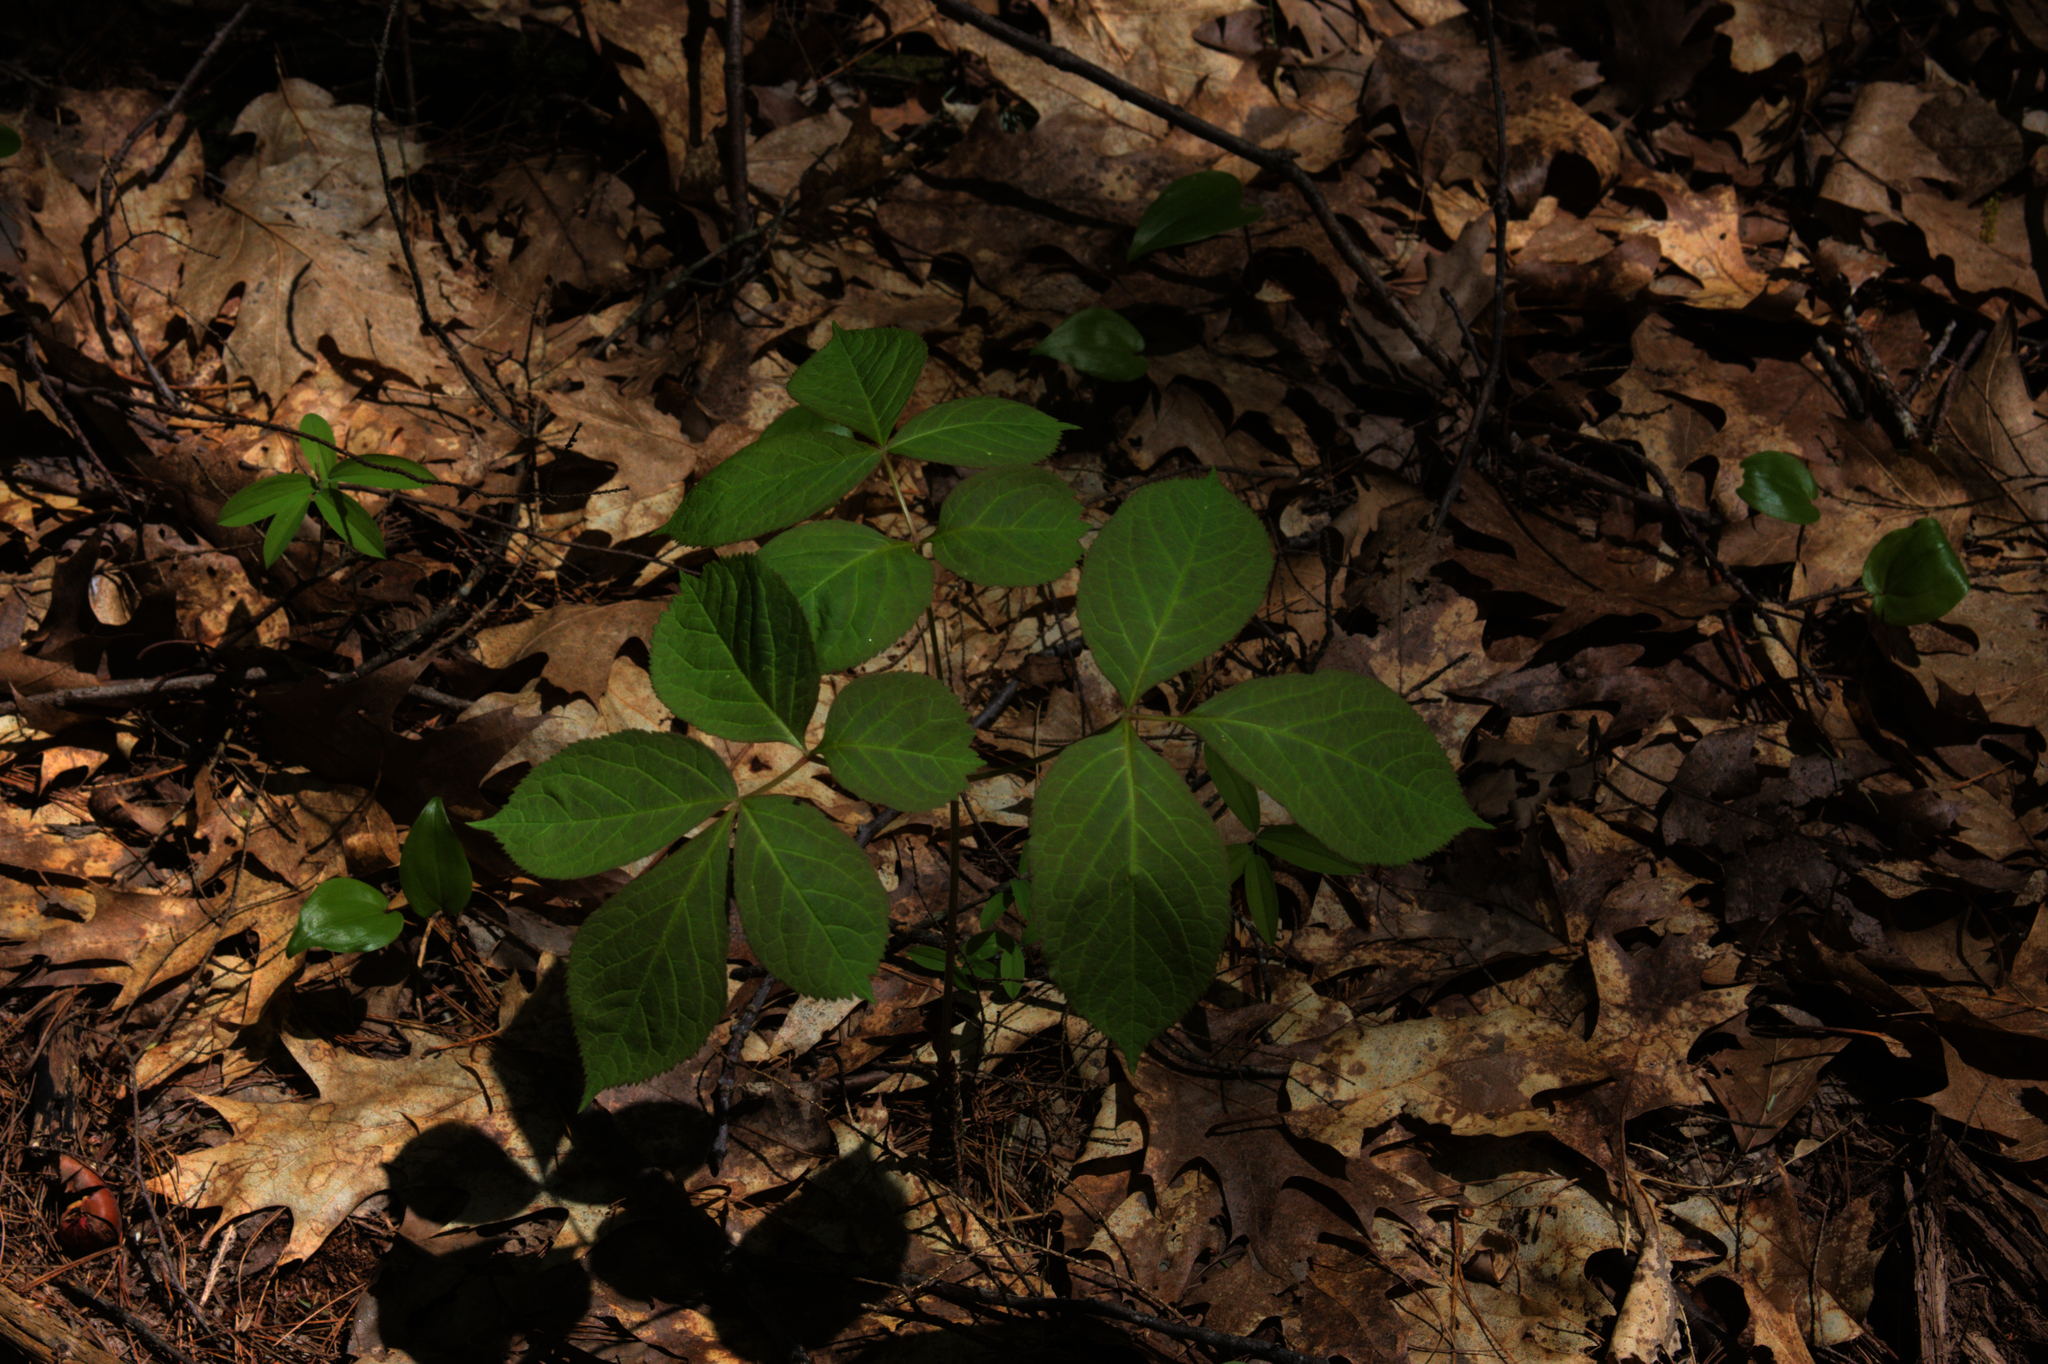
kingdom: Plantae
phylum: Tracheophyta
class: Liliopsida
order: Asparagales
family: Asparagaceae
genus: Maianthemum
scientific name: Maianthemum canadense
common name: False lily-of-the-valley
